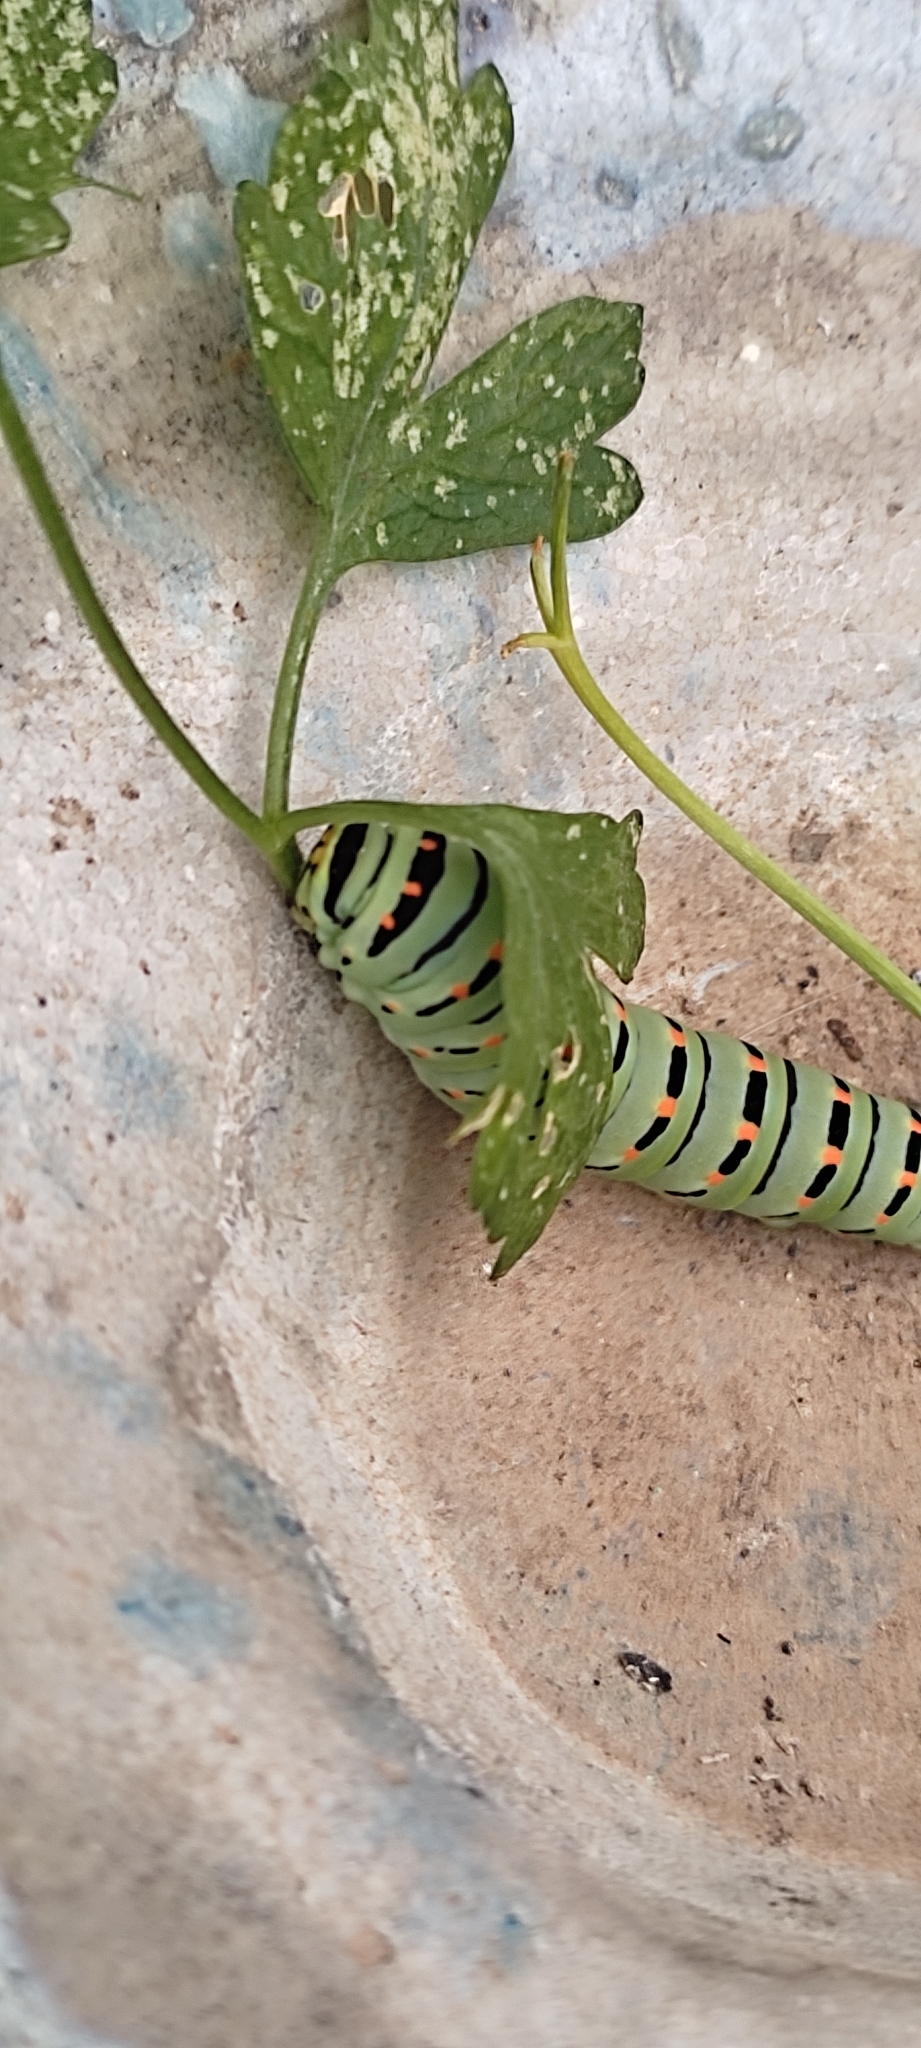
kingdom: Animalia
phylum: Arthropoda
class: Insecta
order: Lepidoptera
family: Papilionidae
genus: Papilio
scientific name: Papilio machaon
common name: Swallowtail
